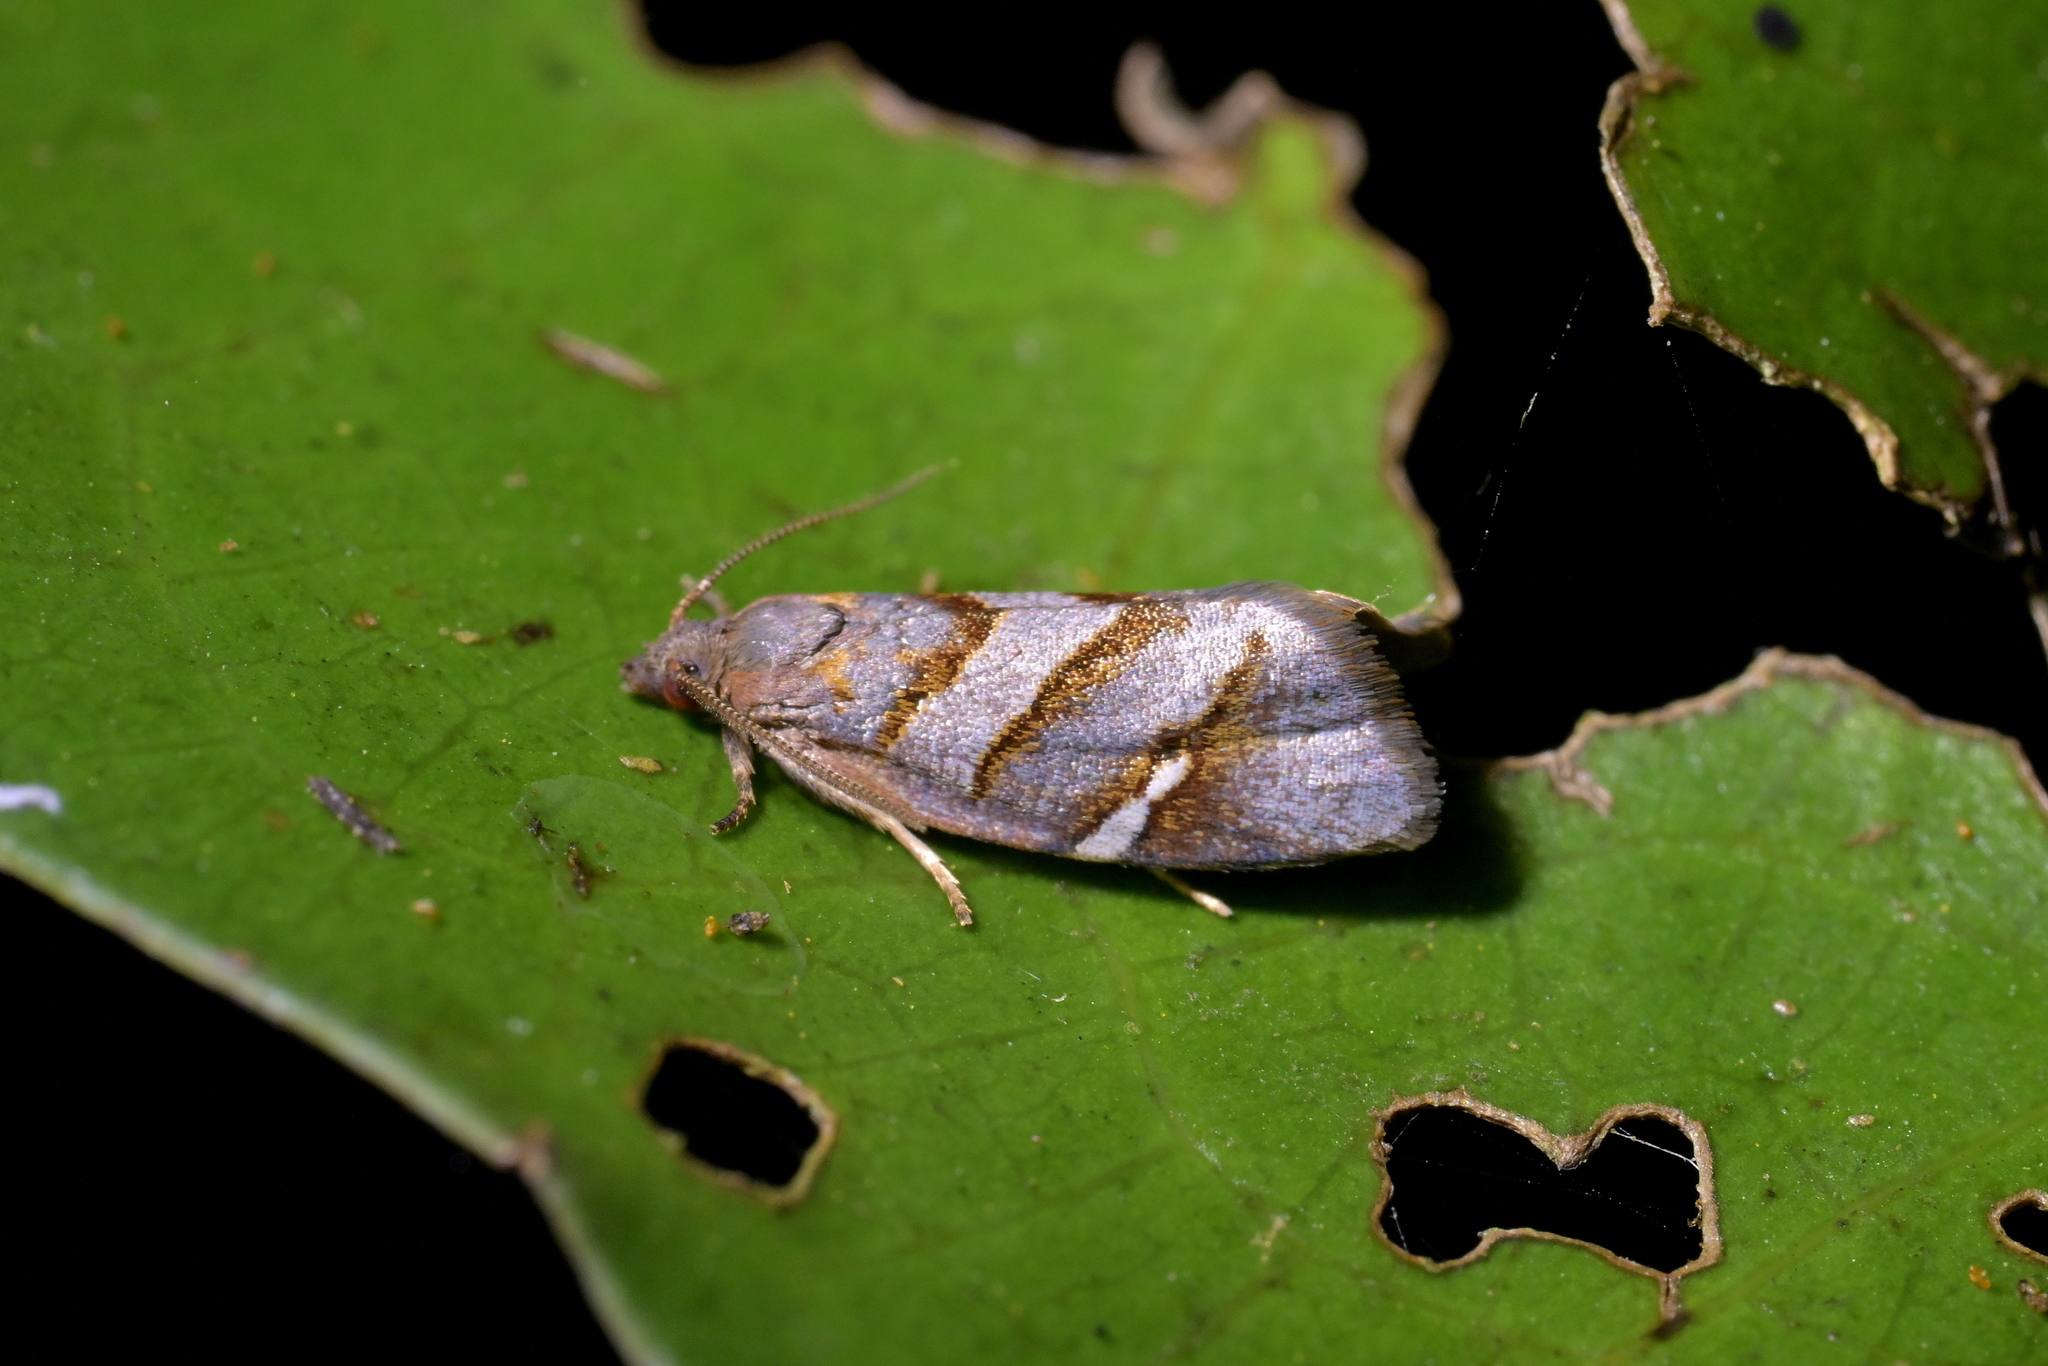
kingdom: Animalia
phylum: Arthropoda
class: Insecta
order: Lepidoptera
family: Tortricidae
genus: Ecclitica
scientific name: Ecclitica torogramma
